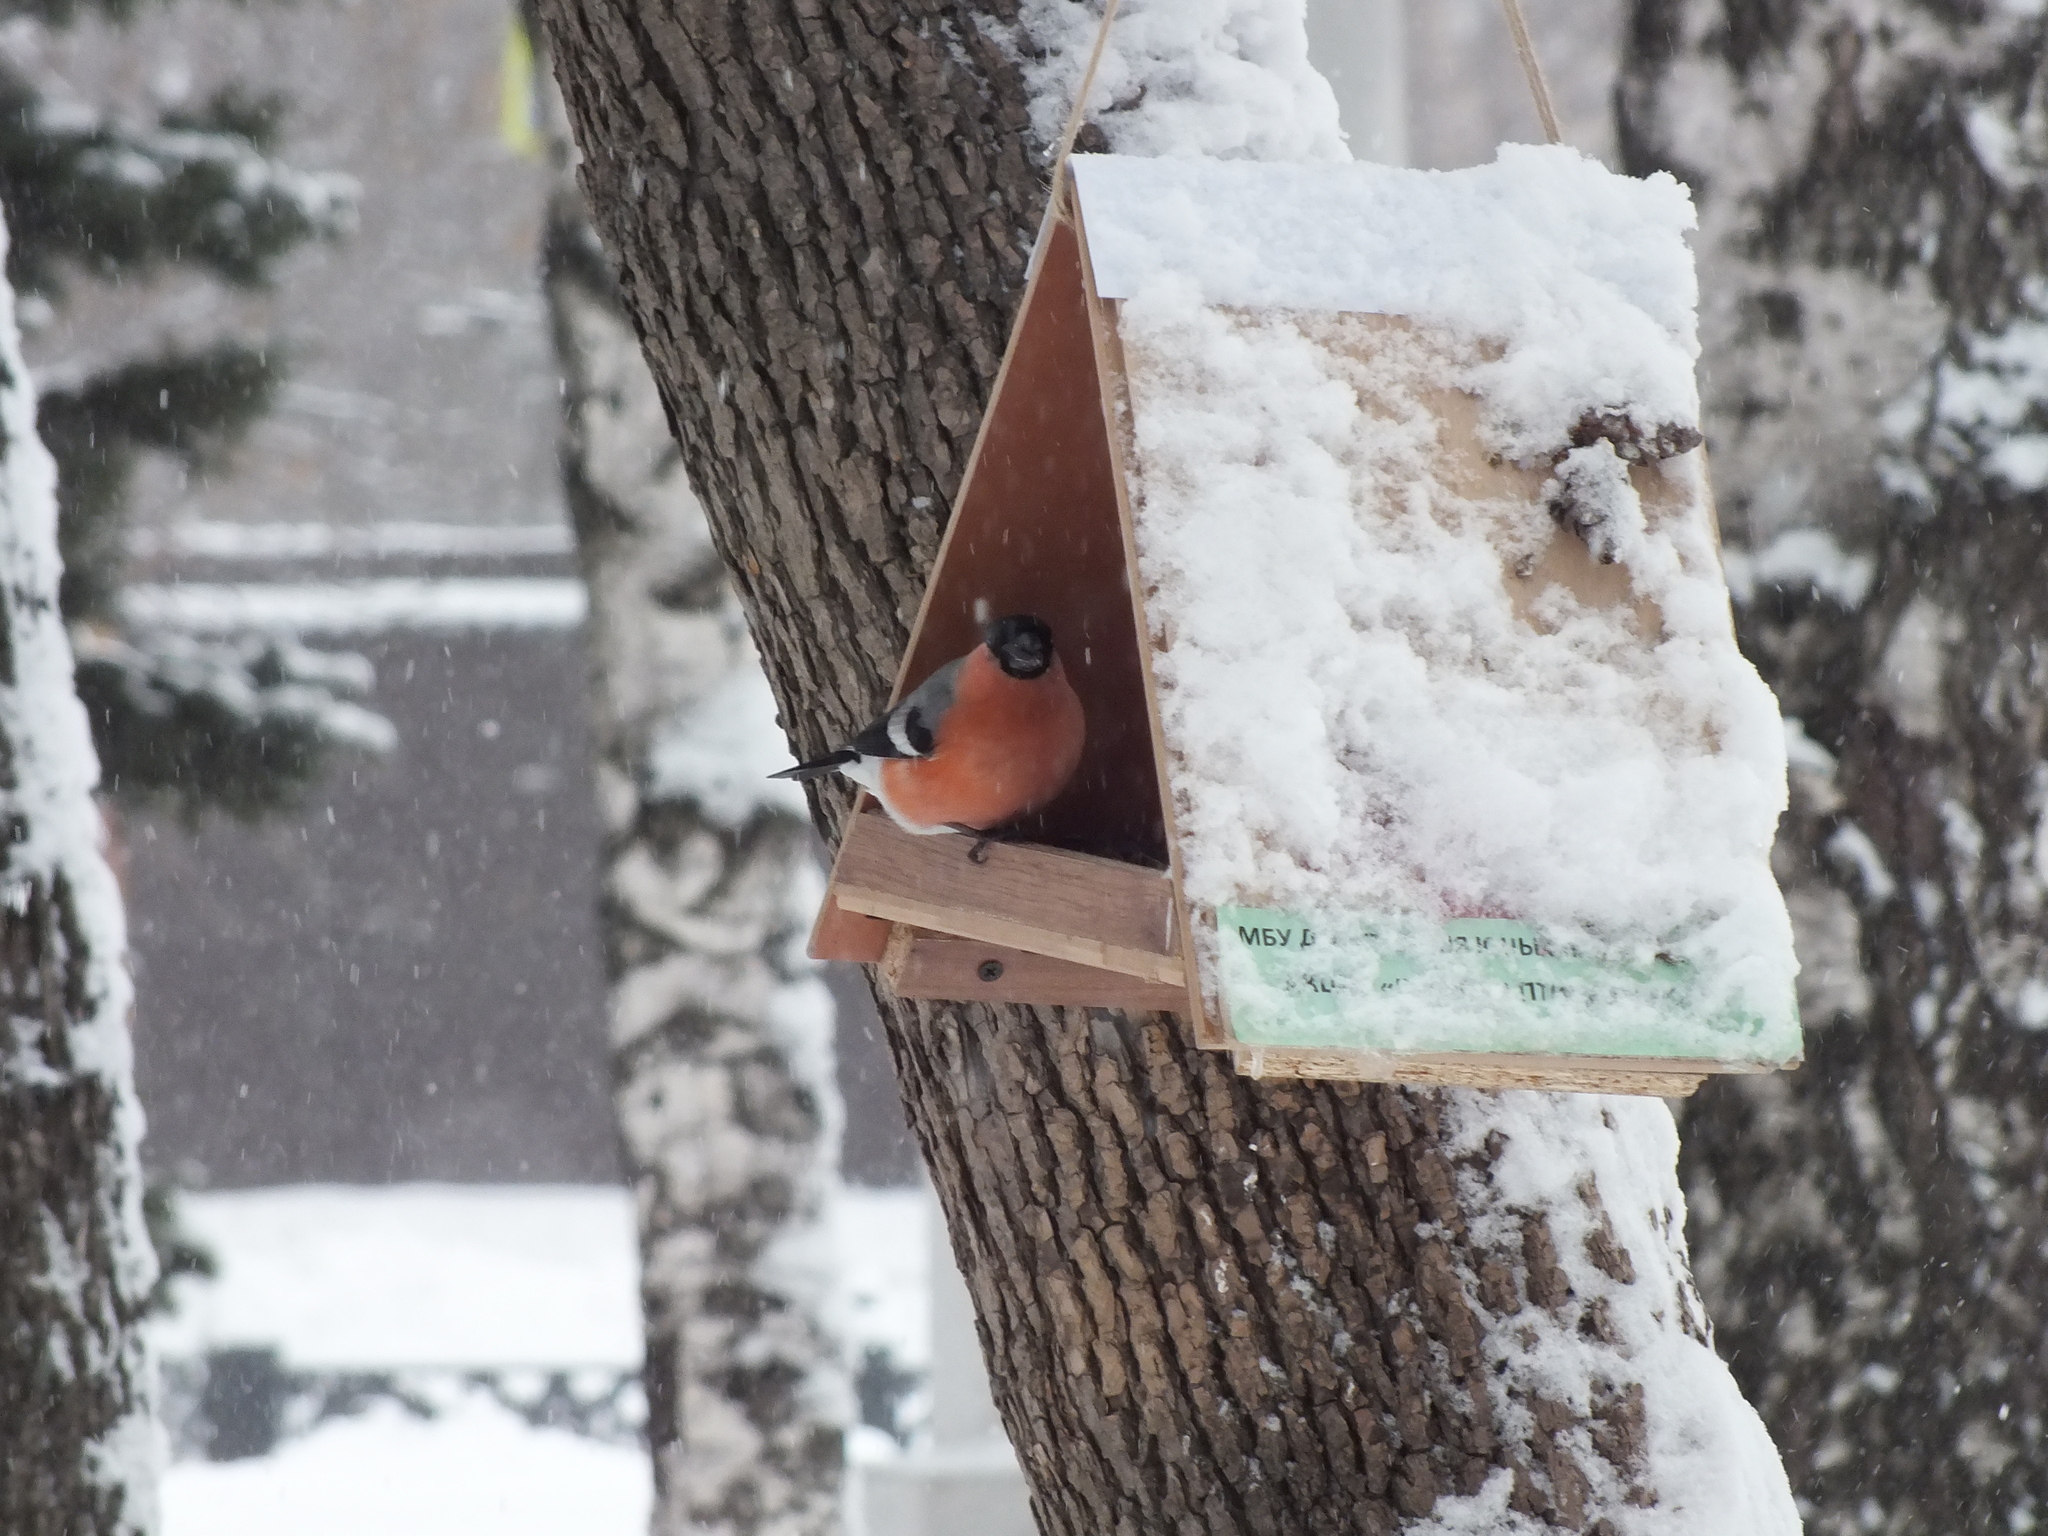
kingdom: Animalia
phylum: Chordata
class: Aves
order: Passeriformes
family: Fringillidae
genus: Pyrrhula
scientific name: Pyrrhula pyrrhula
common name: Eurasian bullfinch
